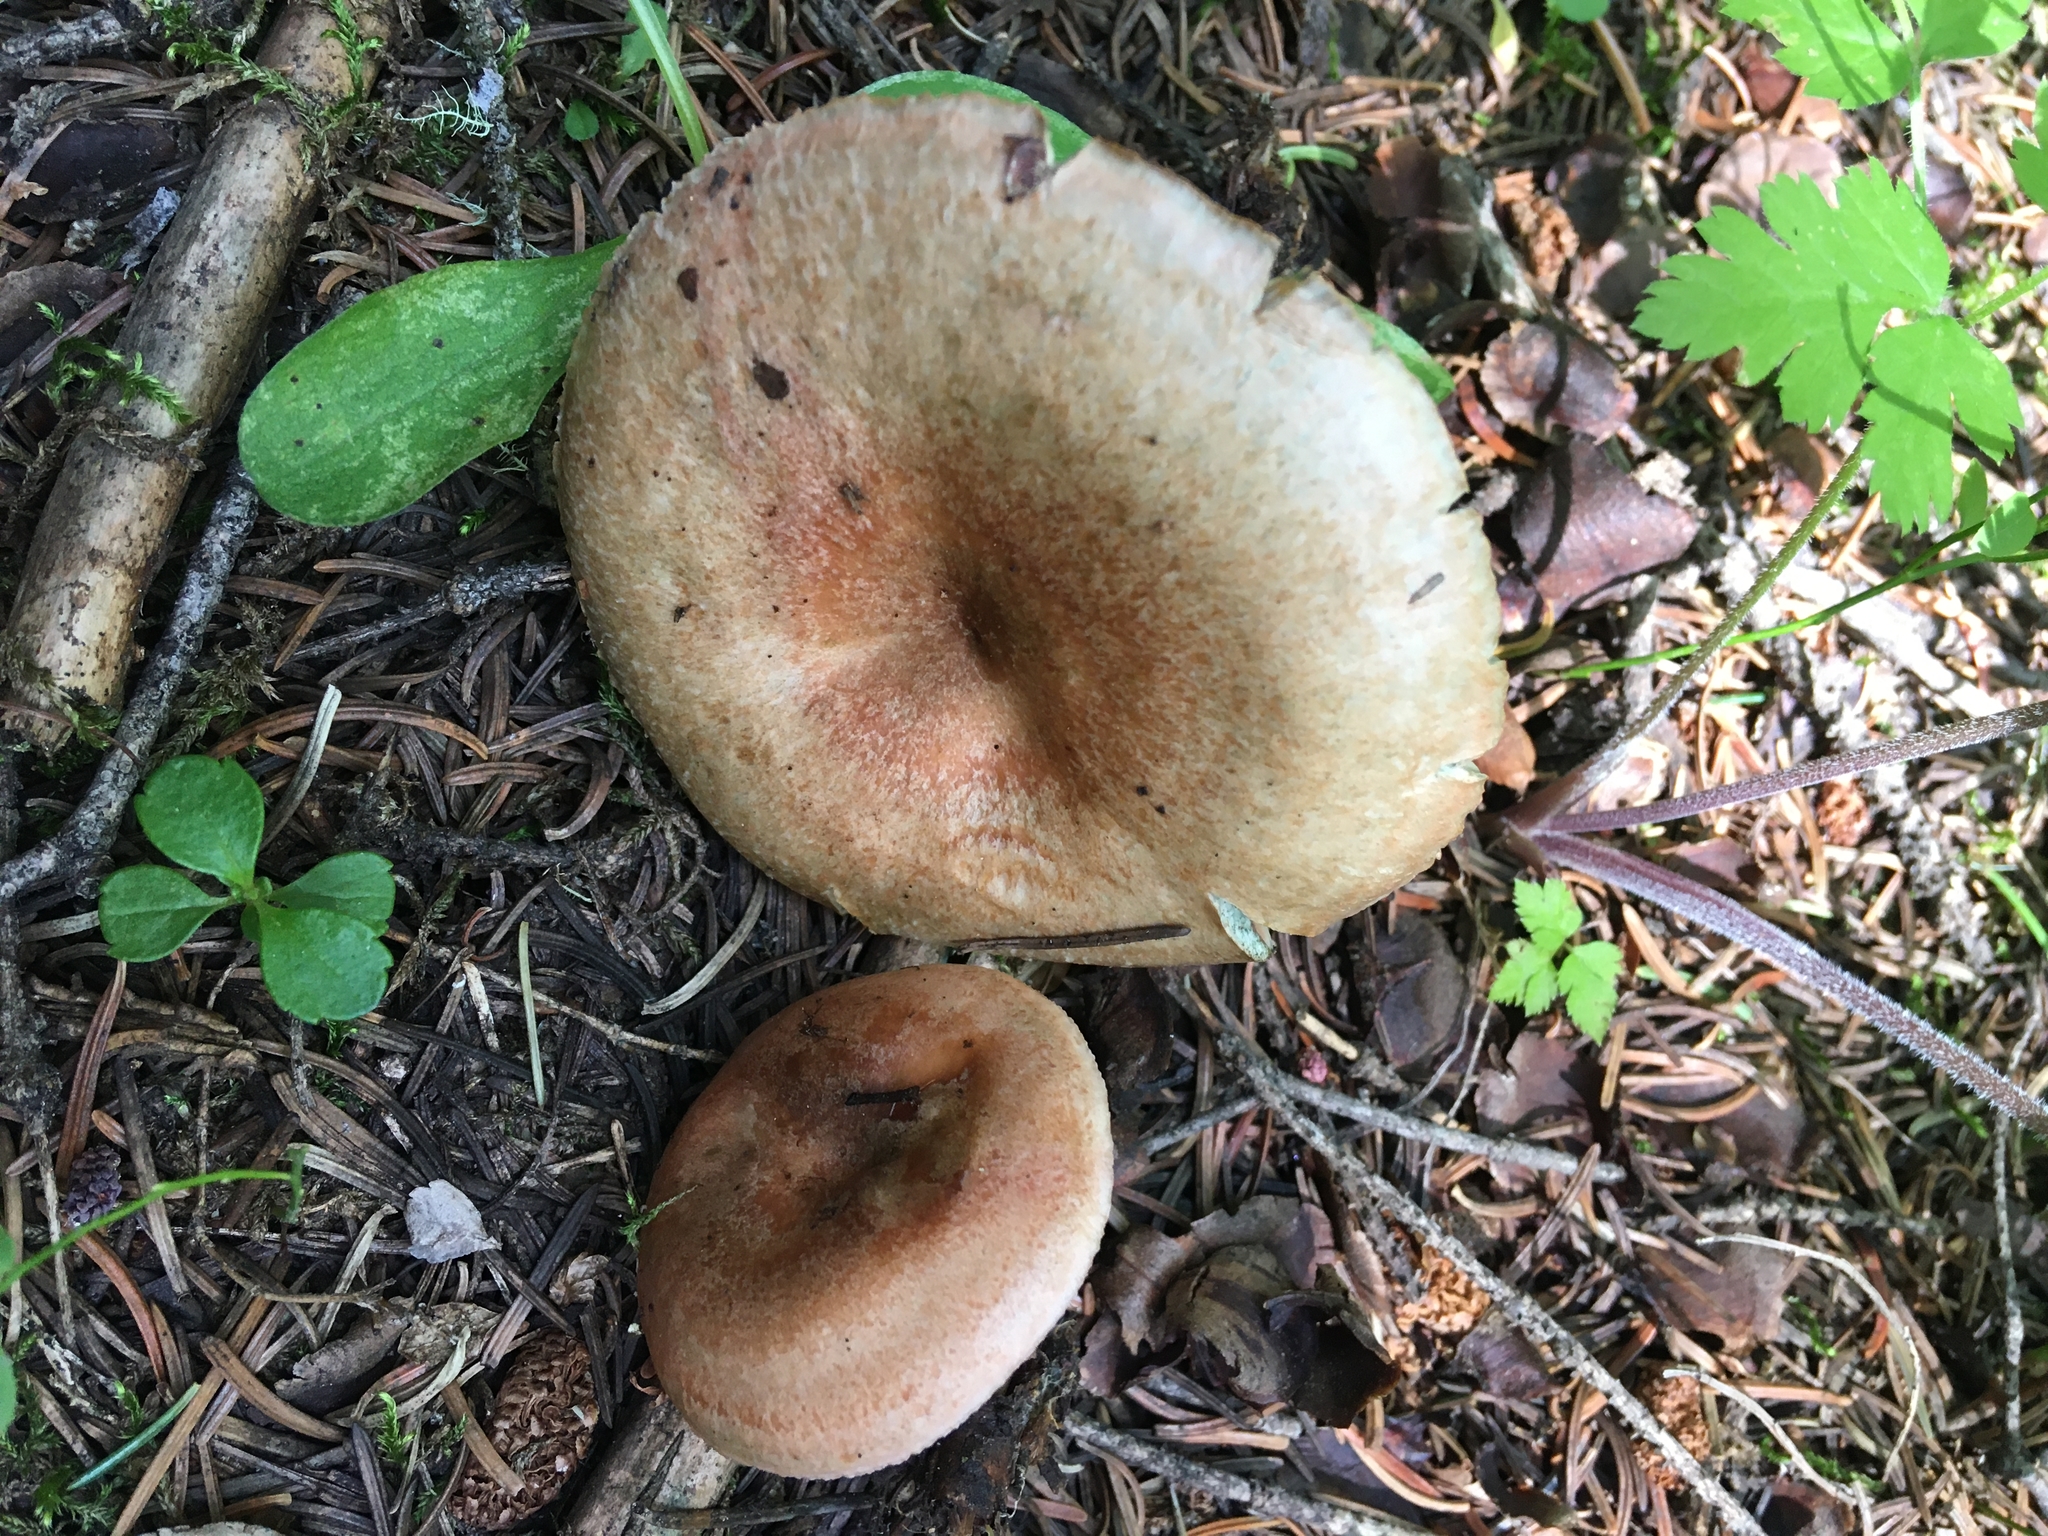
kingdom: Fungi
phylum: Basidiomycota
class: Agaricomycetes
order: Russulales
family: Russulaceae
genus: Lactarius
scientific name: Lactarius deliciosus
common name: Saffron milk-cap
